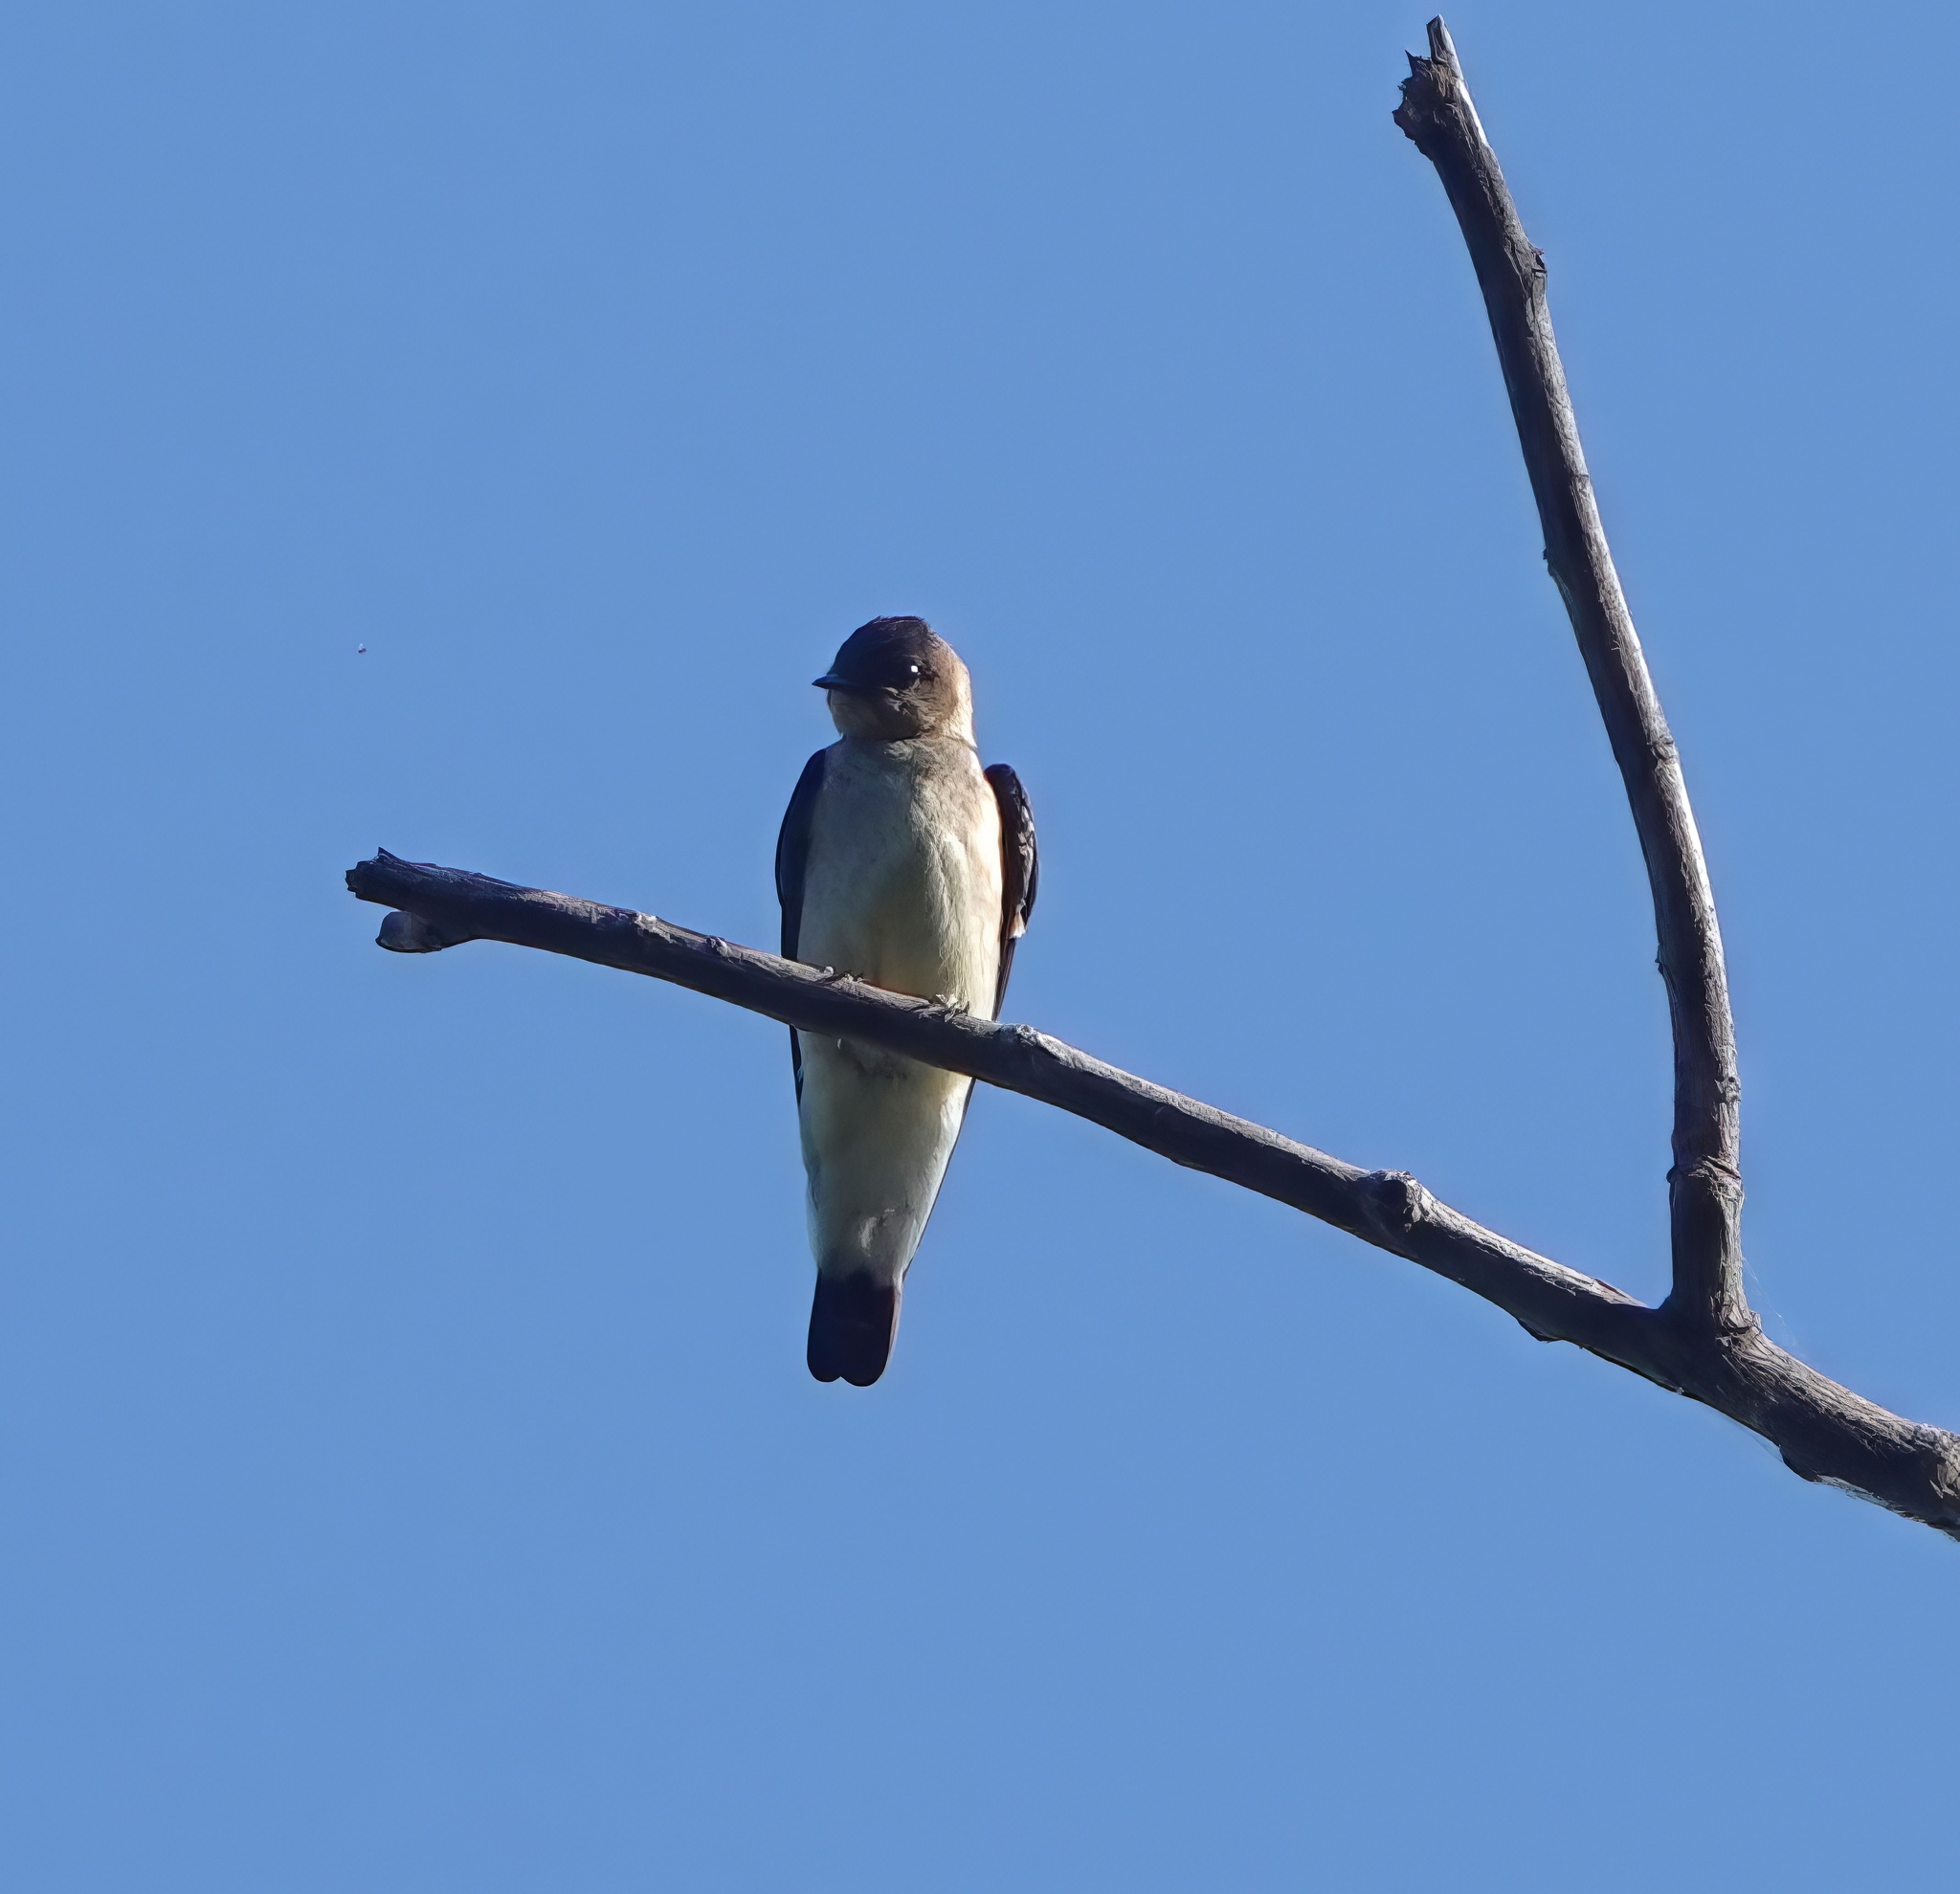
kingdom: Animalia
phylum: Chordata
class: Aves
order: Passeriformes
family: Hirundinidae
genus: Stelgidopteryx
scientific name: Stelgidopteryx ruficollis
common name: Southern rough-winged swallow
